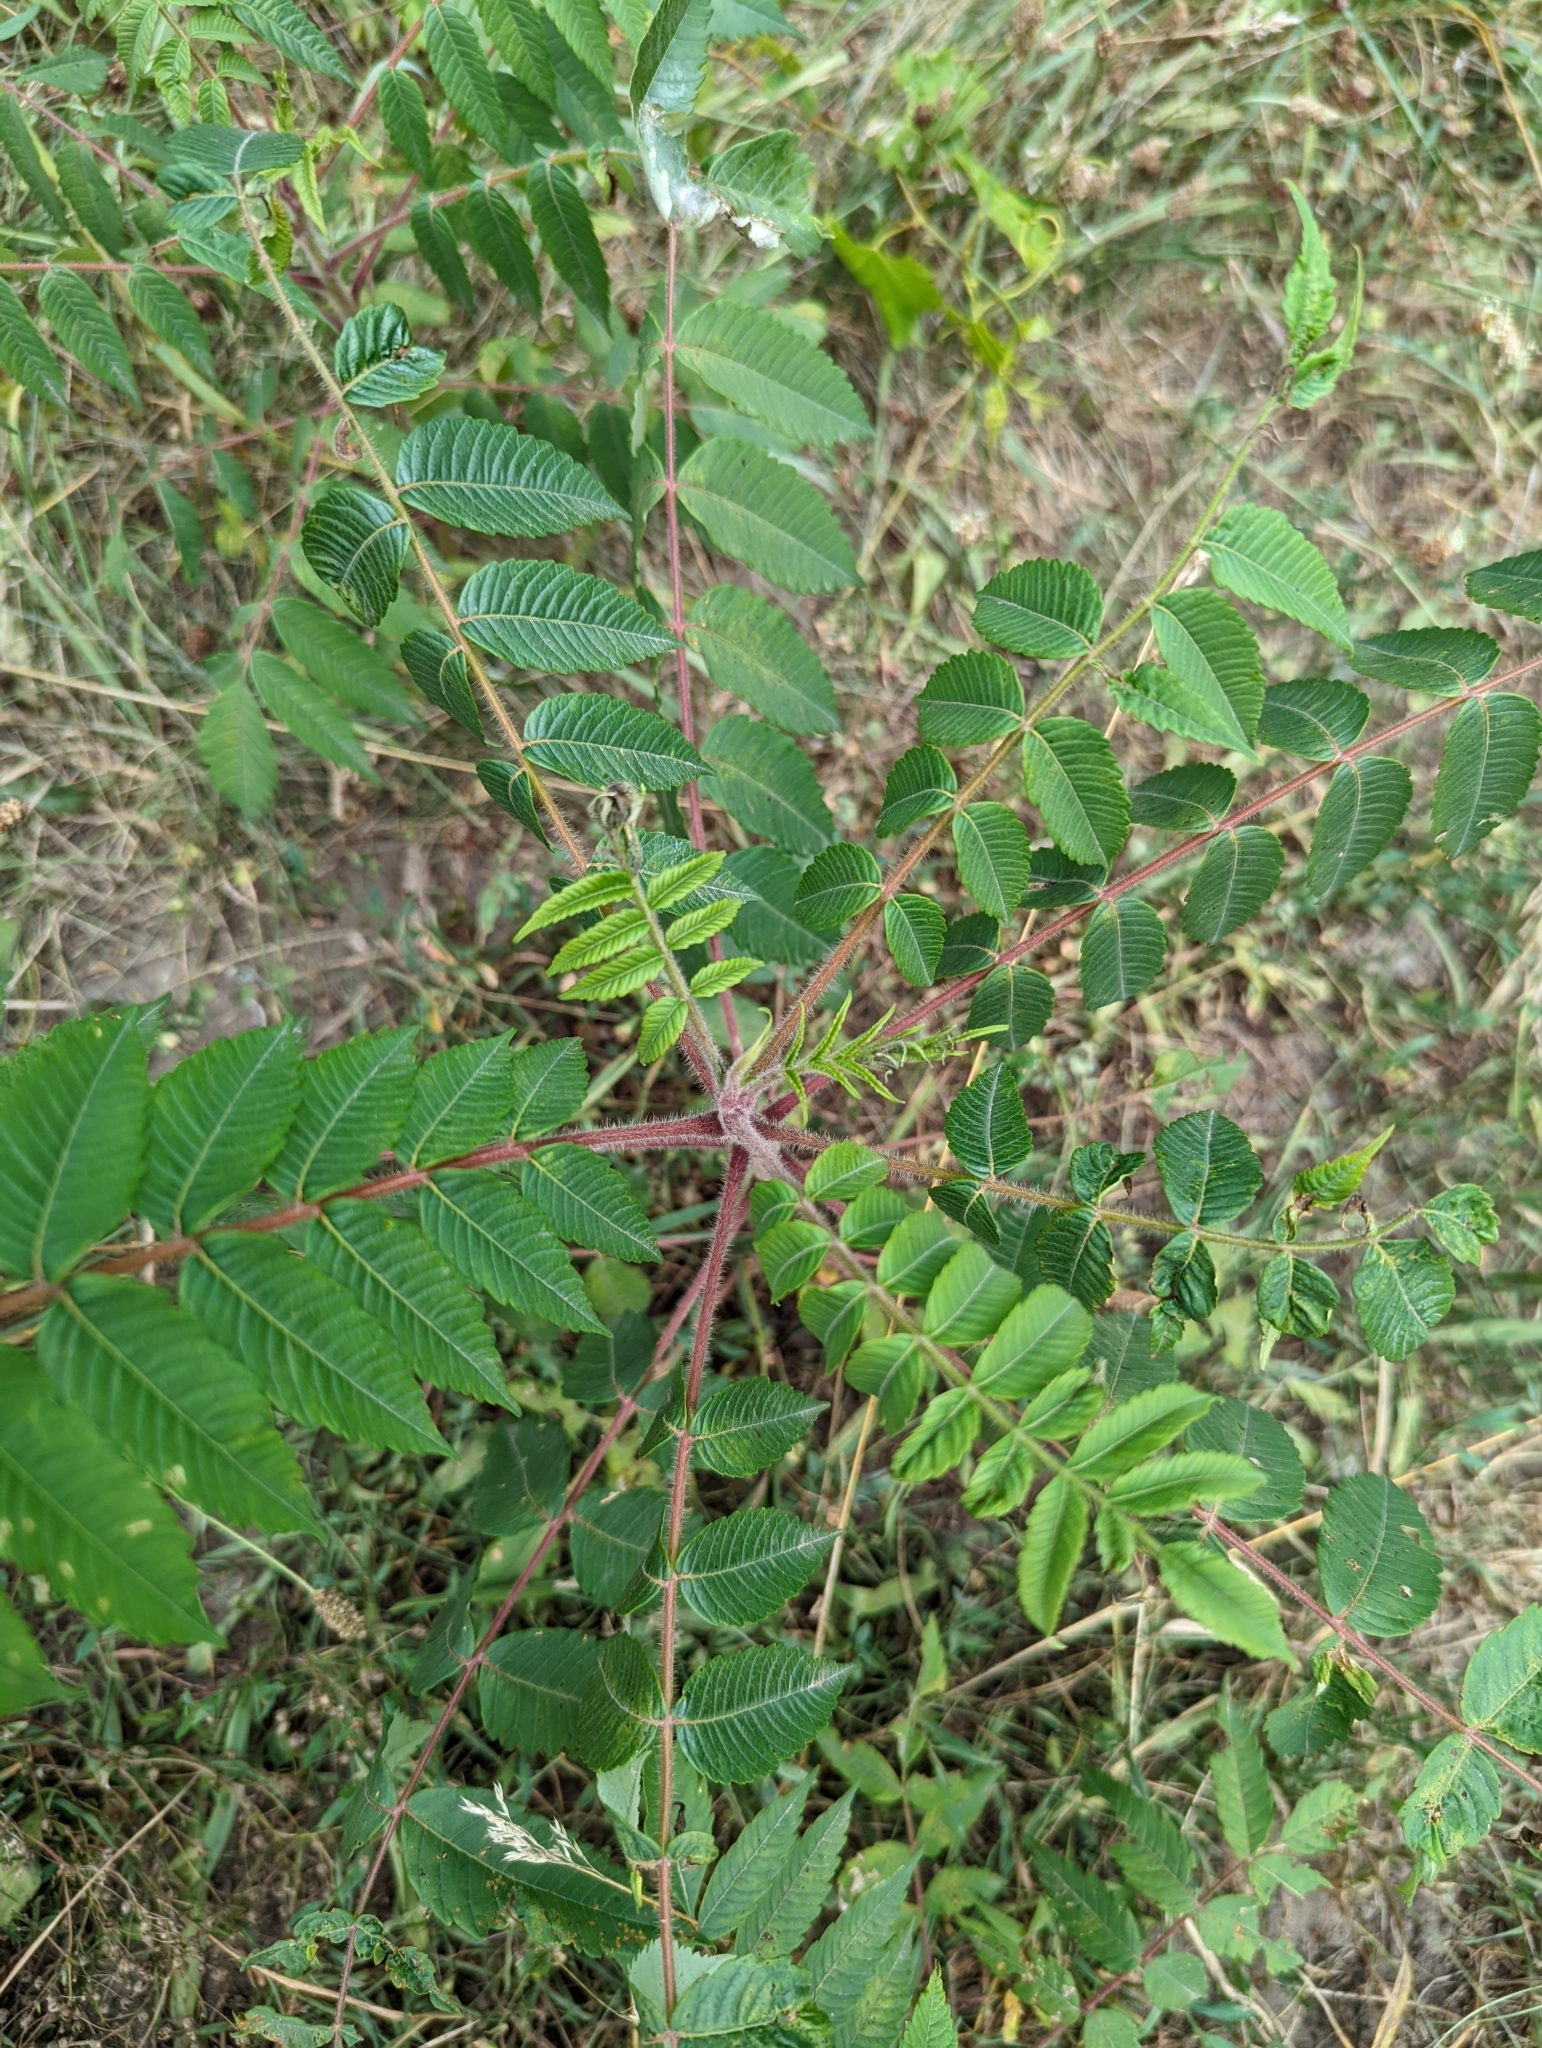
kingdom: Plantae
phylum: Tracheophyta
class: Magnoliopsida
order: Sapindales
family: Anacardiaceae
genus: Rhus
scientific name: Rhus typhina
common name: Staghorn sumac
